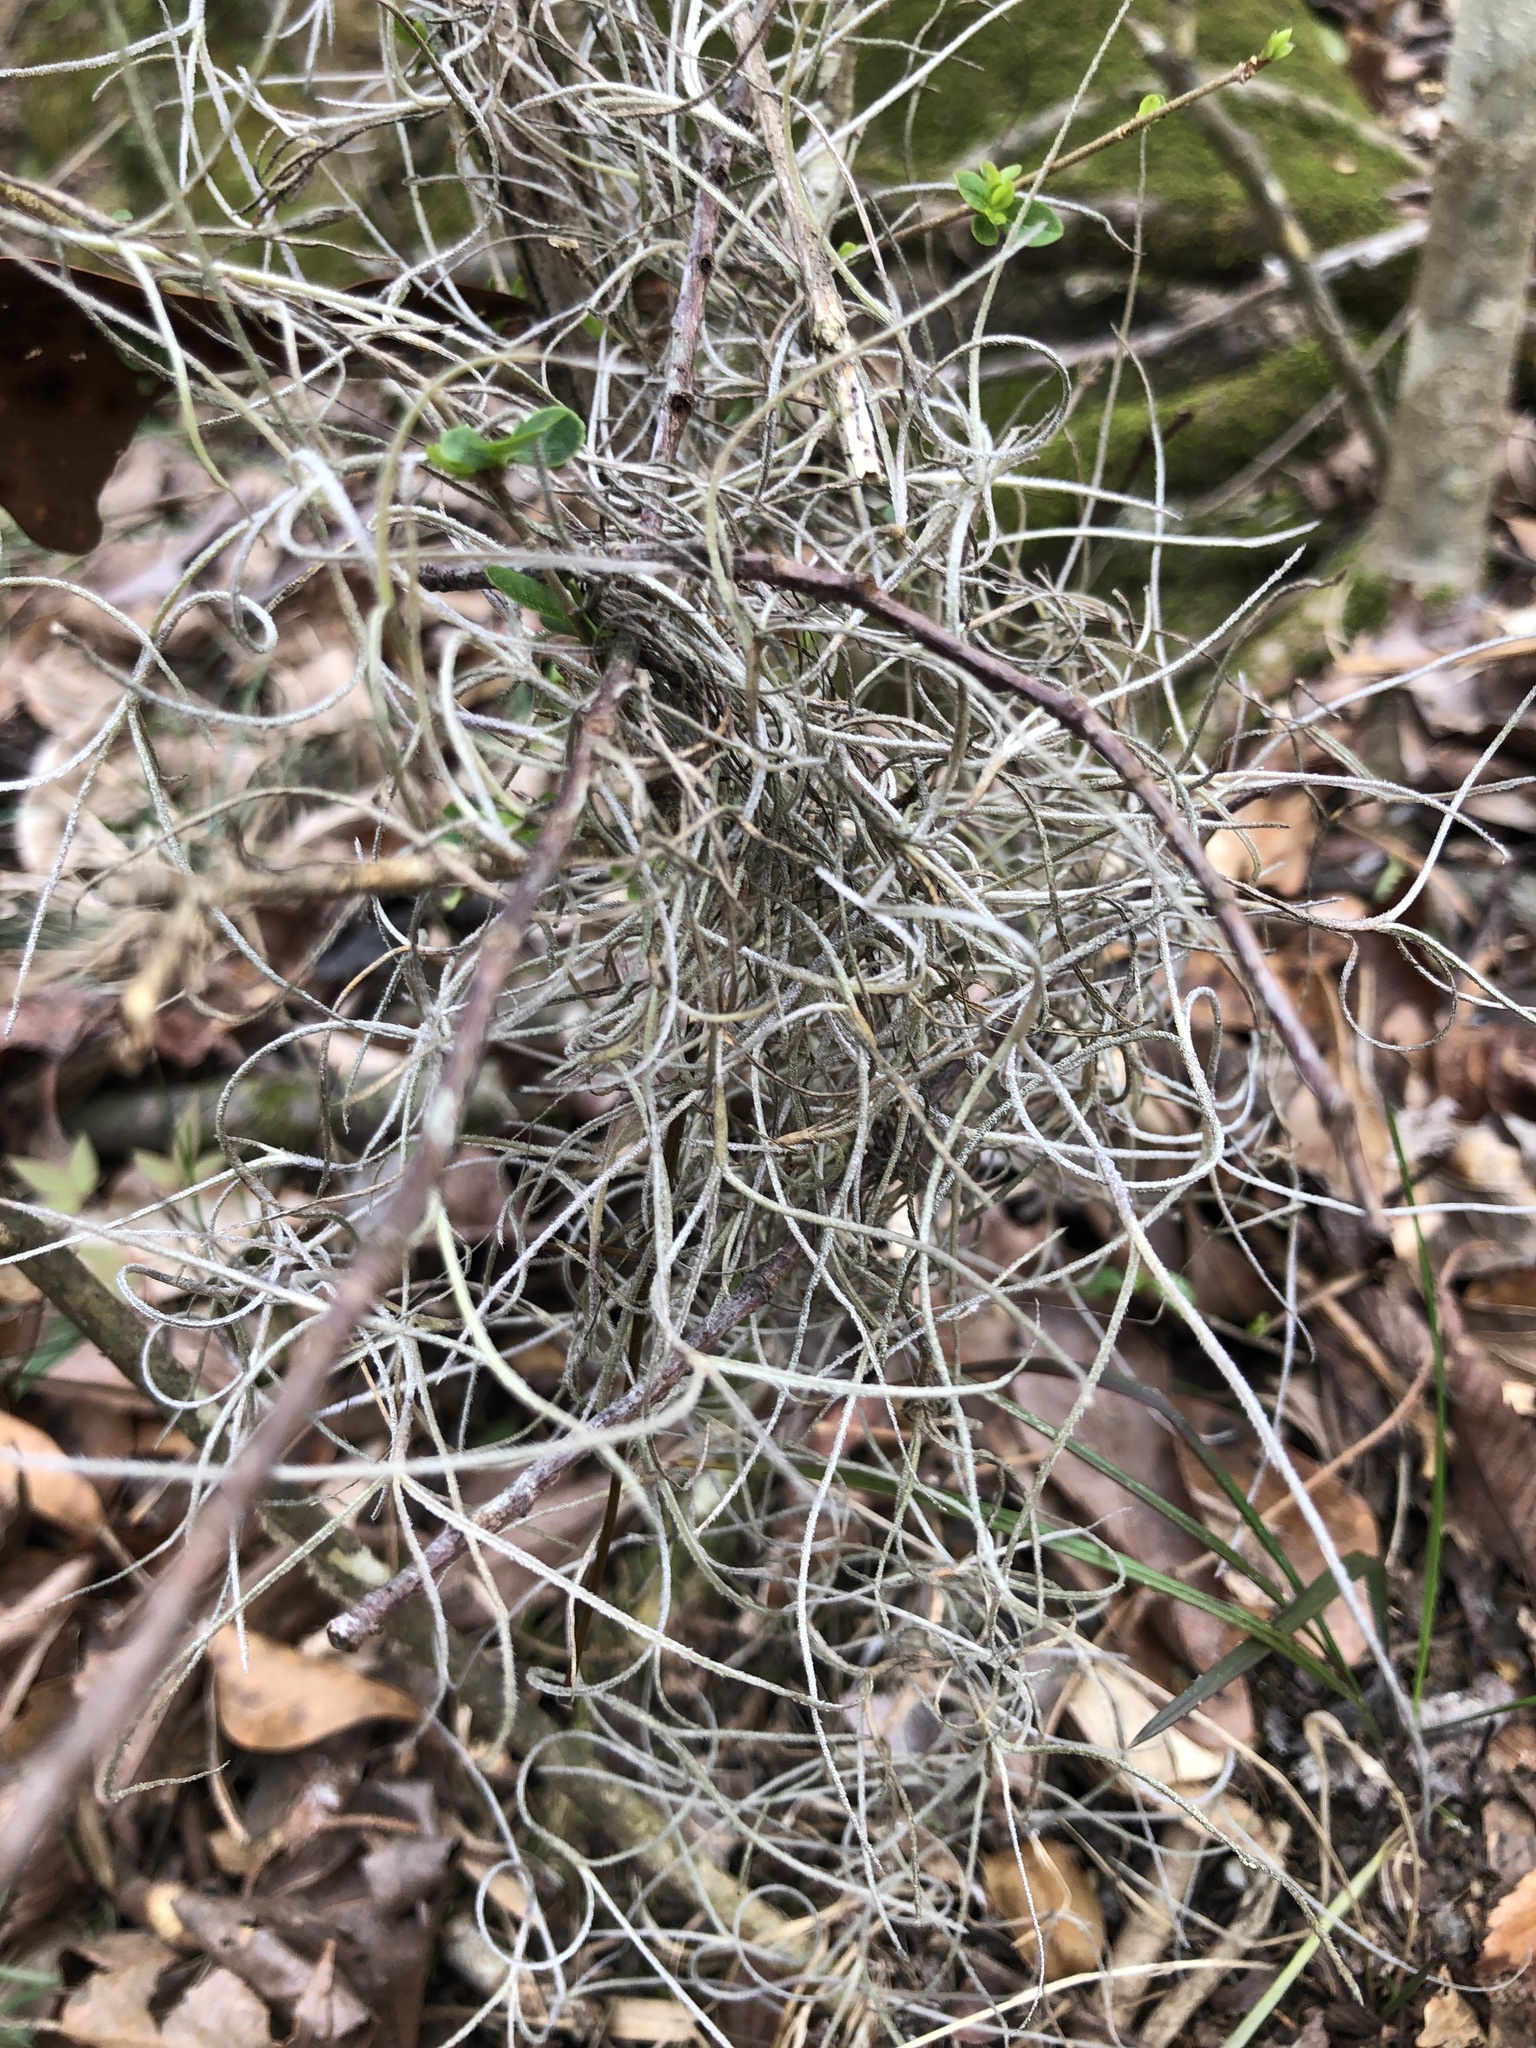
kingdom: Plantae
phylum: Tracheophyta
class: Liliopsida
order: Poales
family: Bromeliaceae
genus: Tillandsia
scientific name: Tillandsia usneoides
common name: Spanish moss
